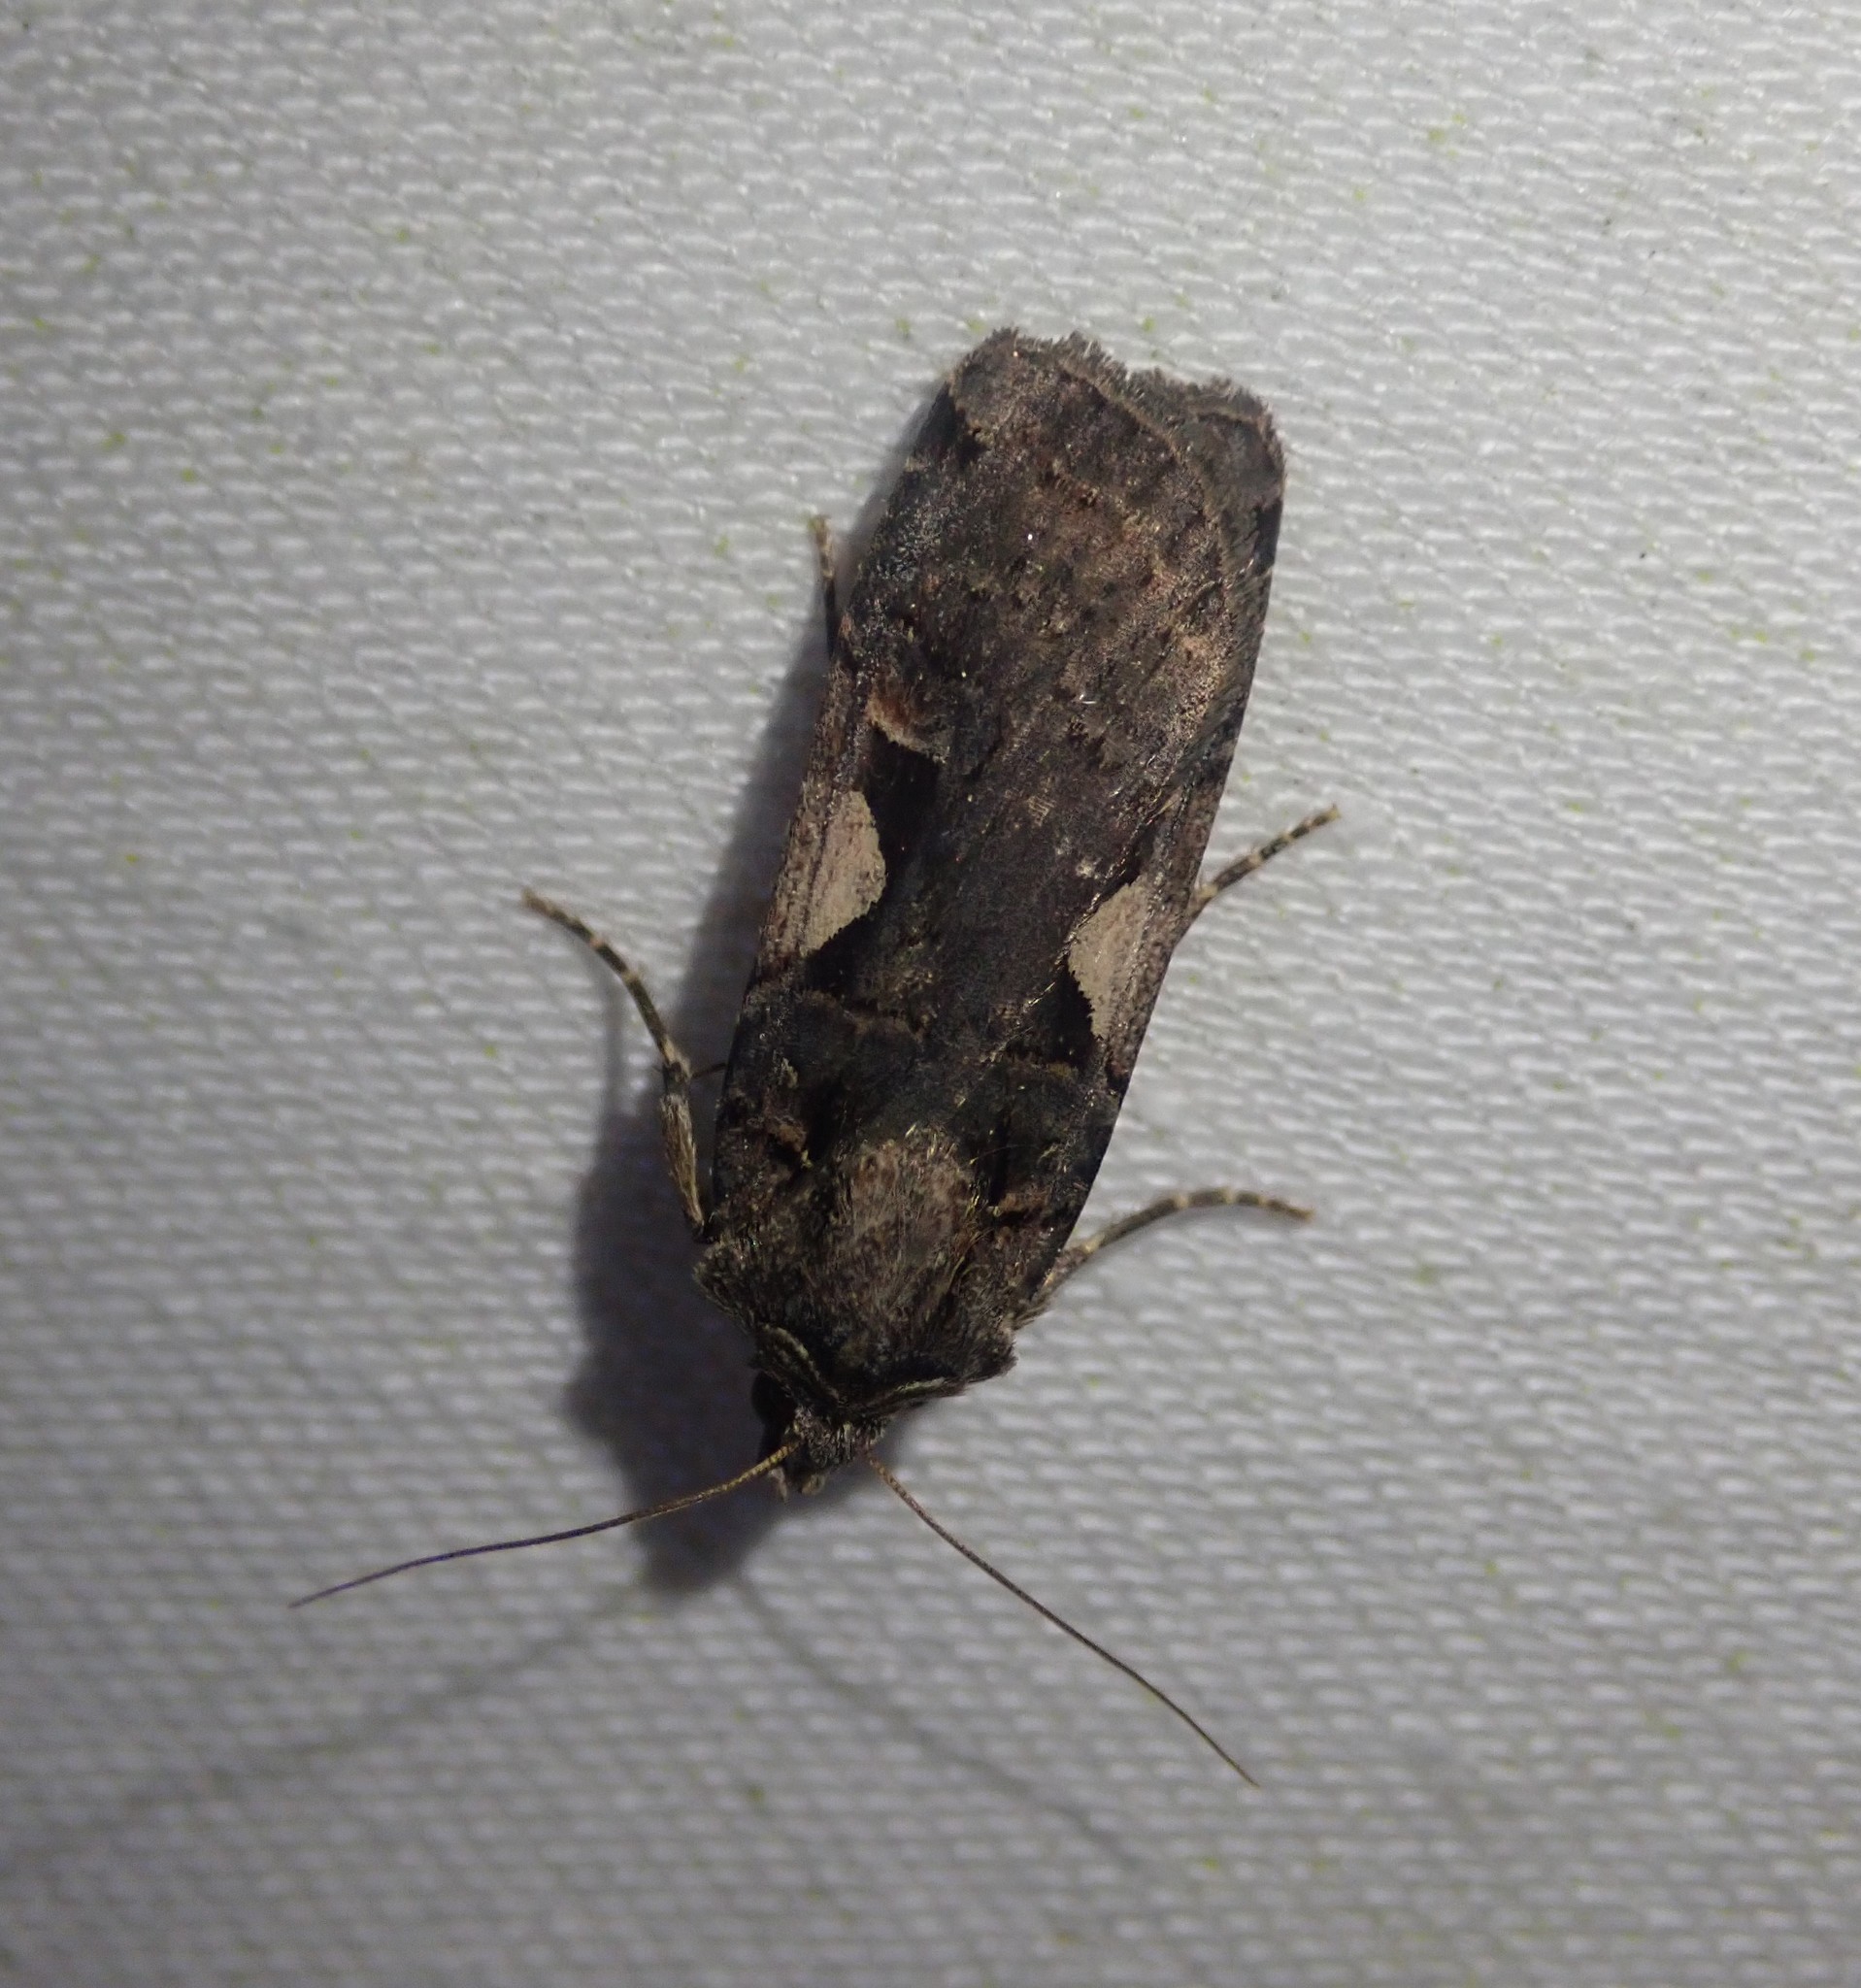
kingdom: Animalia
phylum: Arthropoda
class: Insecta
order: Lepidoptera
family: Noctuidae
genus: Xestia
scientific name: Xestia c-nigrum
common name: Setaceous hebrew character
